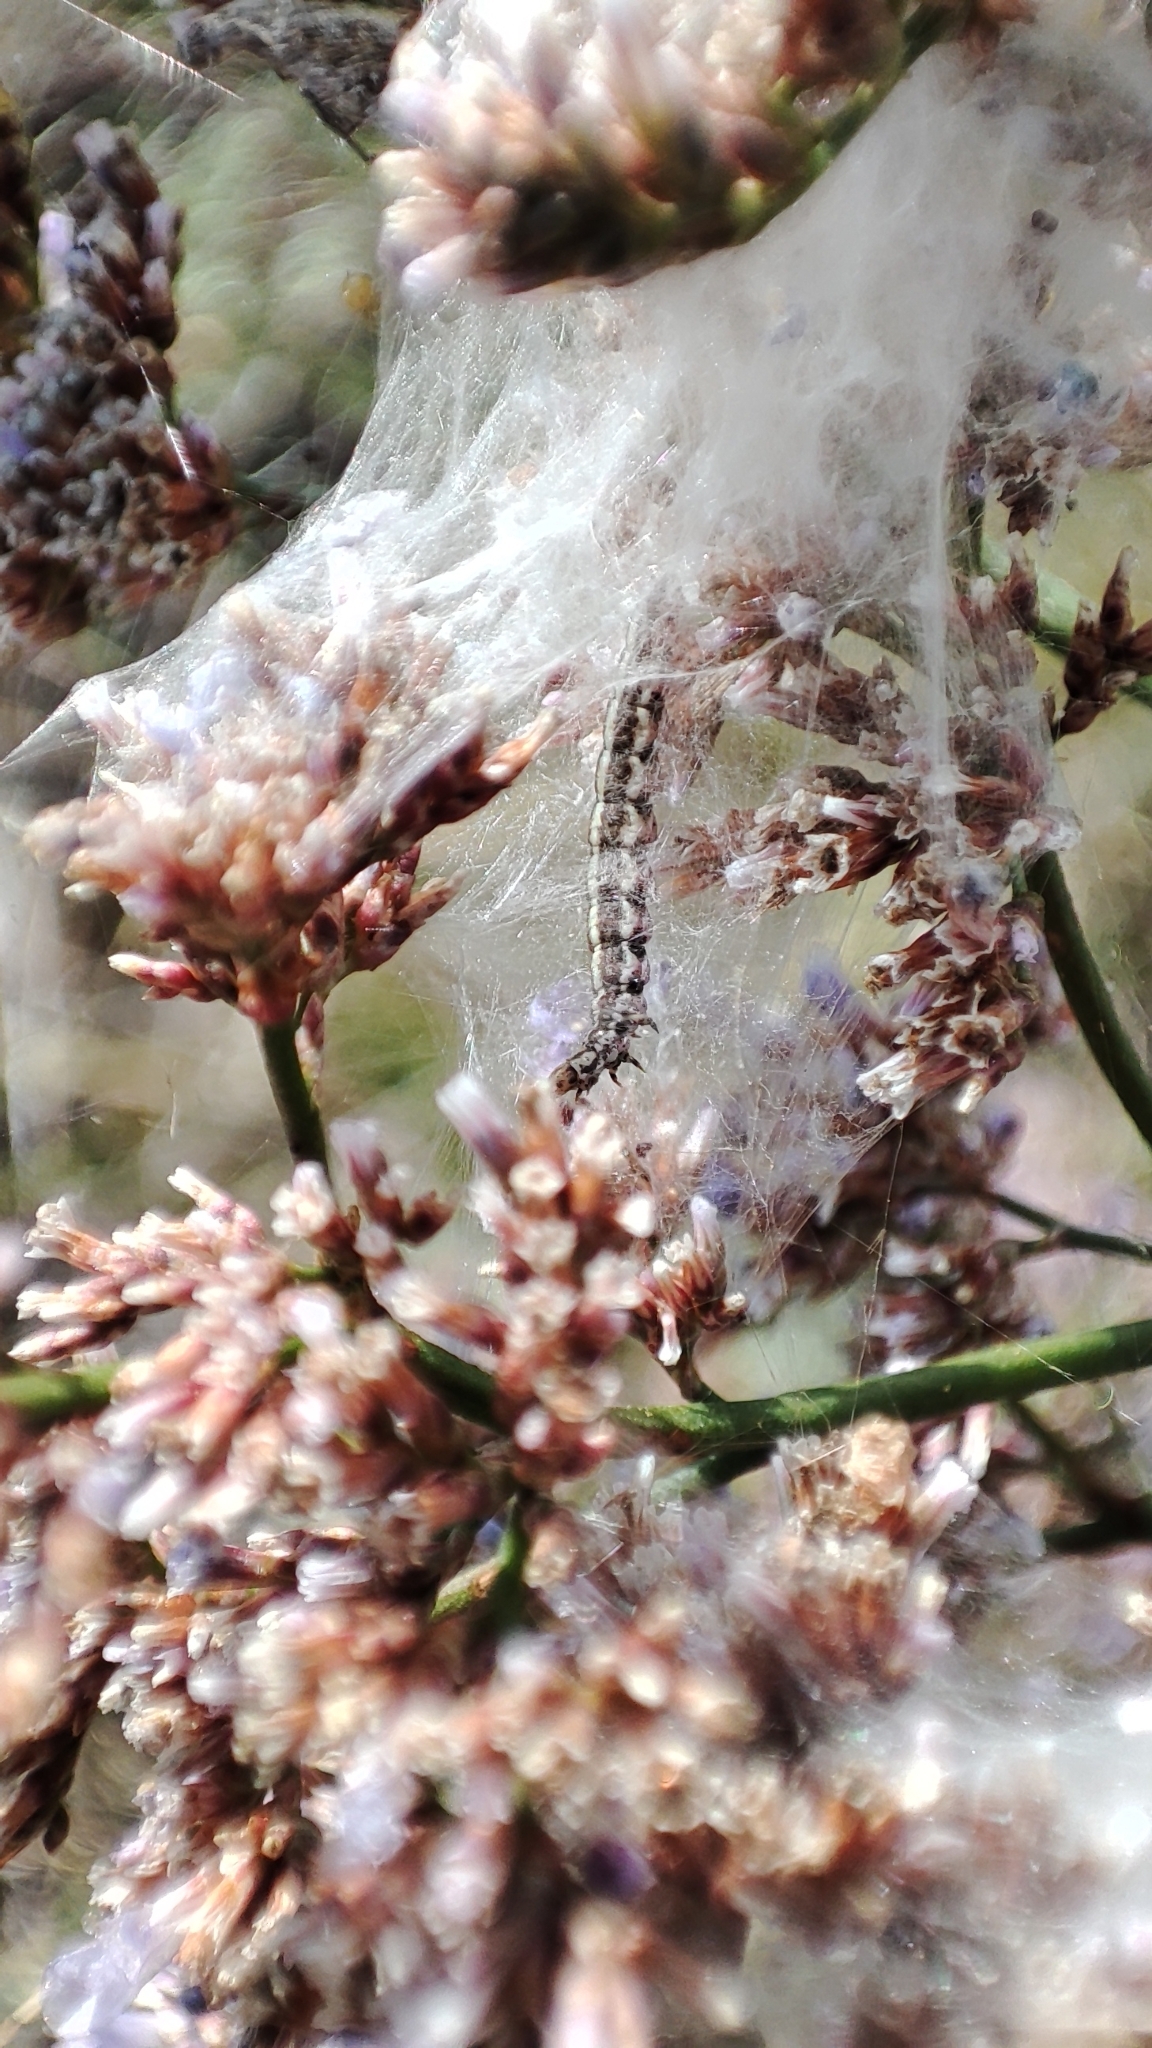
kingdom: Animalia
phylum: Arthropoda
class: Insecta
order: Lepidoptera
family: Galacticidae
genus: Galactica
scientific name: Galactica walsinghami
